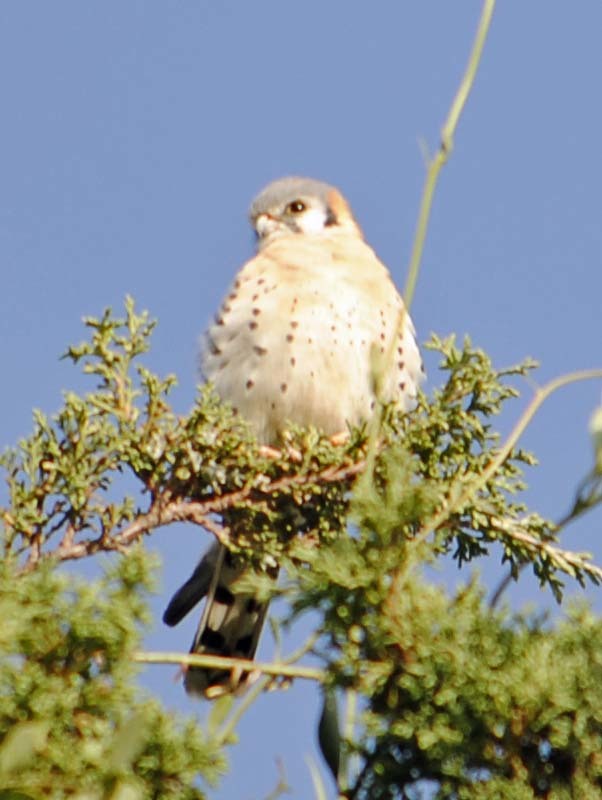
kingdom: Animalia
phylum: Chordata
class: Aves
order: Falconiformes
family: Falconidae
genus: Falco
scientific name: Falco sparverius
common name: American kestrel
